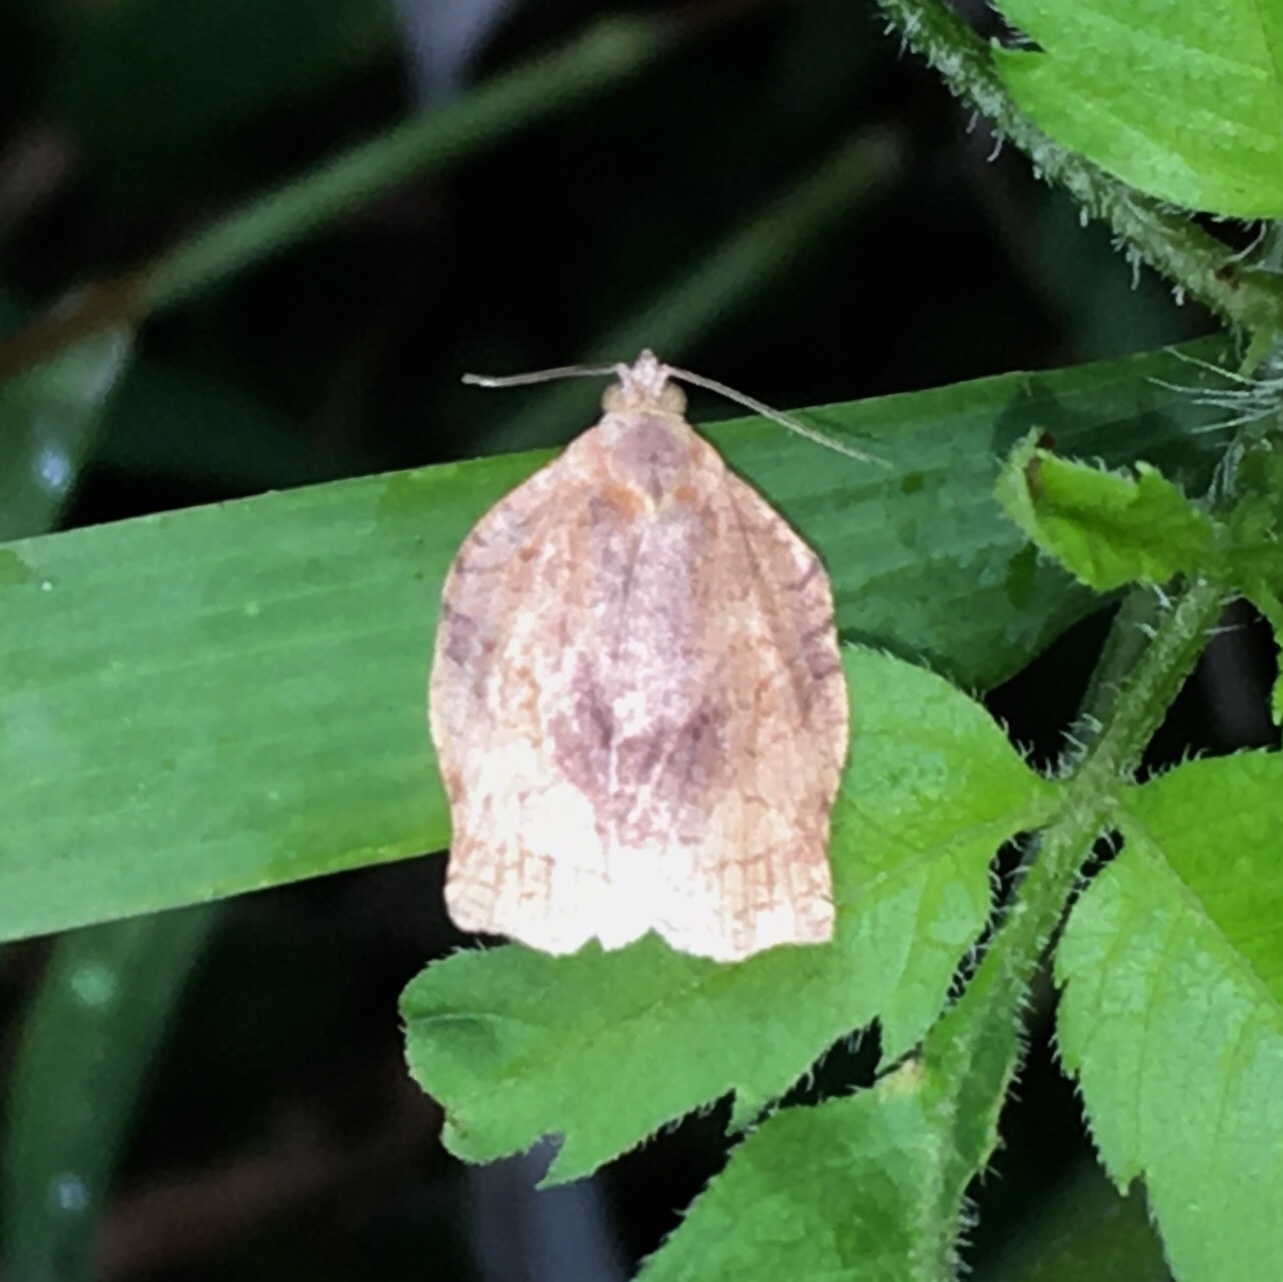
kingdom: Animalia
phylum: Arthropoda
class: Insecta
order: Lepidoptera
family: Tortricidae
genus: Archips
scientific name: Archips purpurana
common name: Omnivorous leafroller
